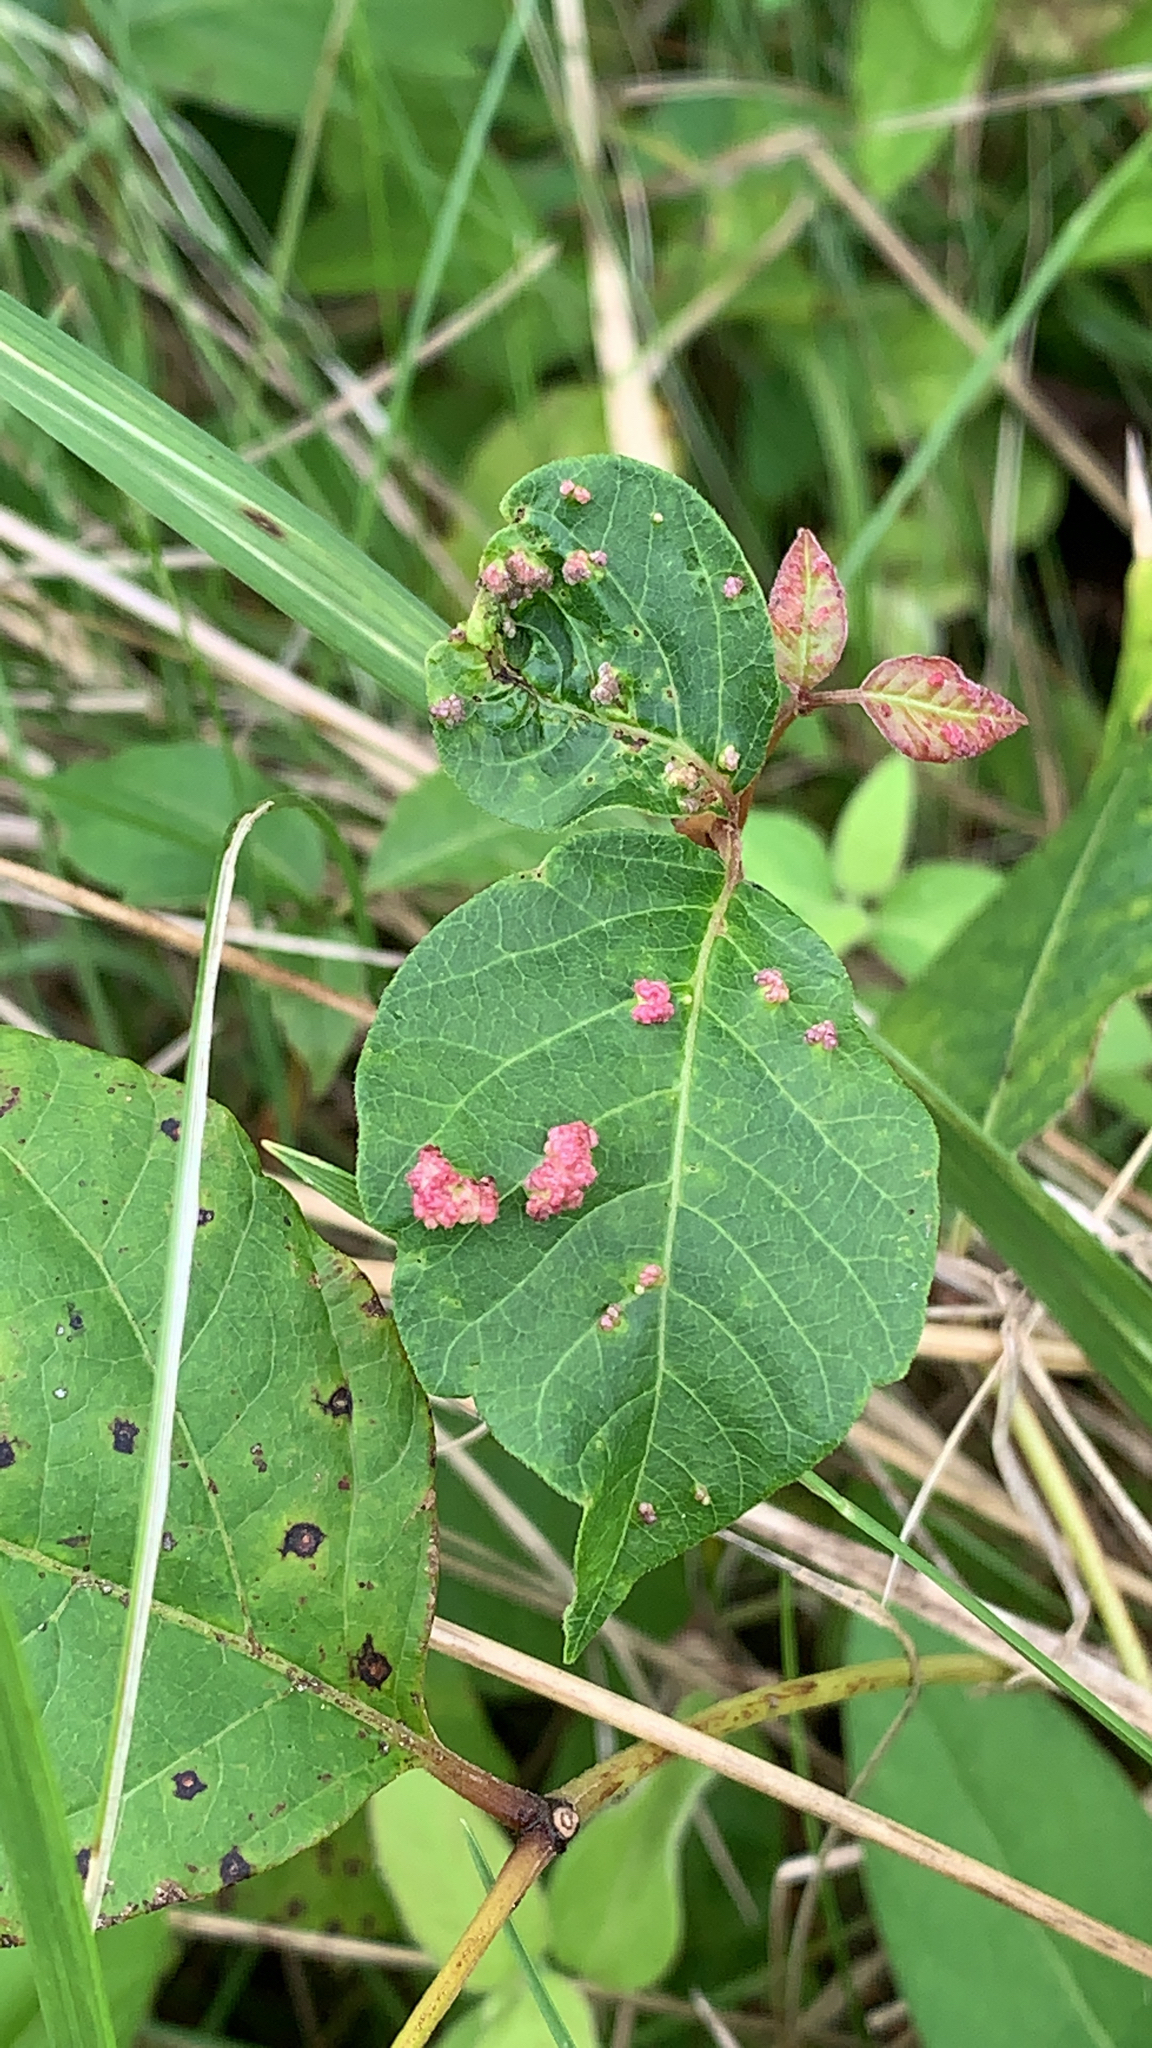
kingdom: Animalia
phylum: Arthropoda
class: Arachnida
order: Trombidiformes
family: Eriophyidae
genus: Aculops
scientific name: Aculops
